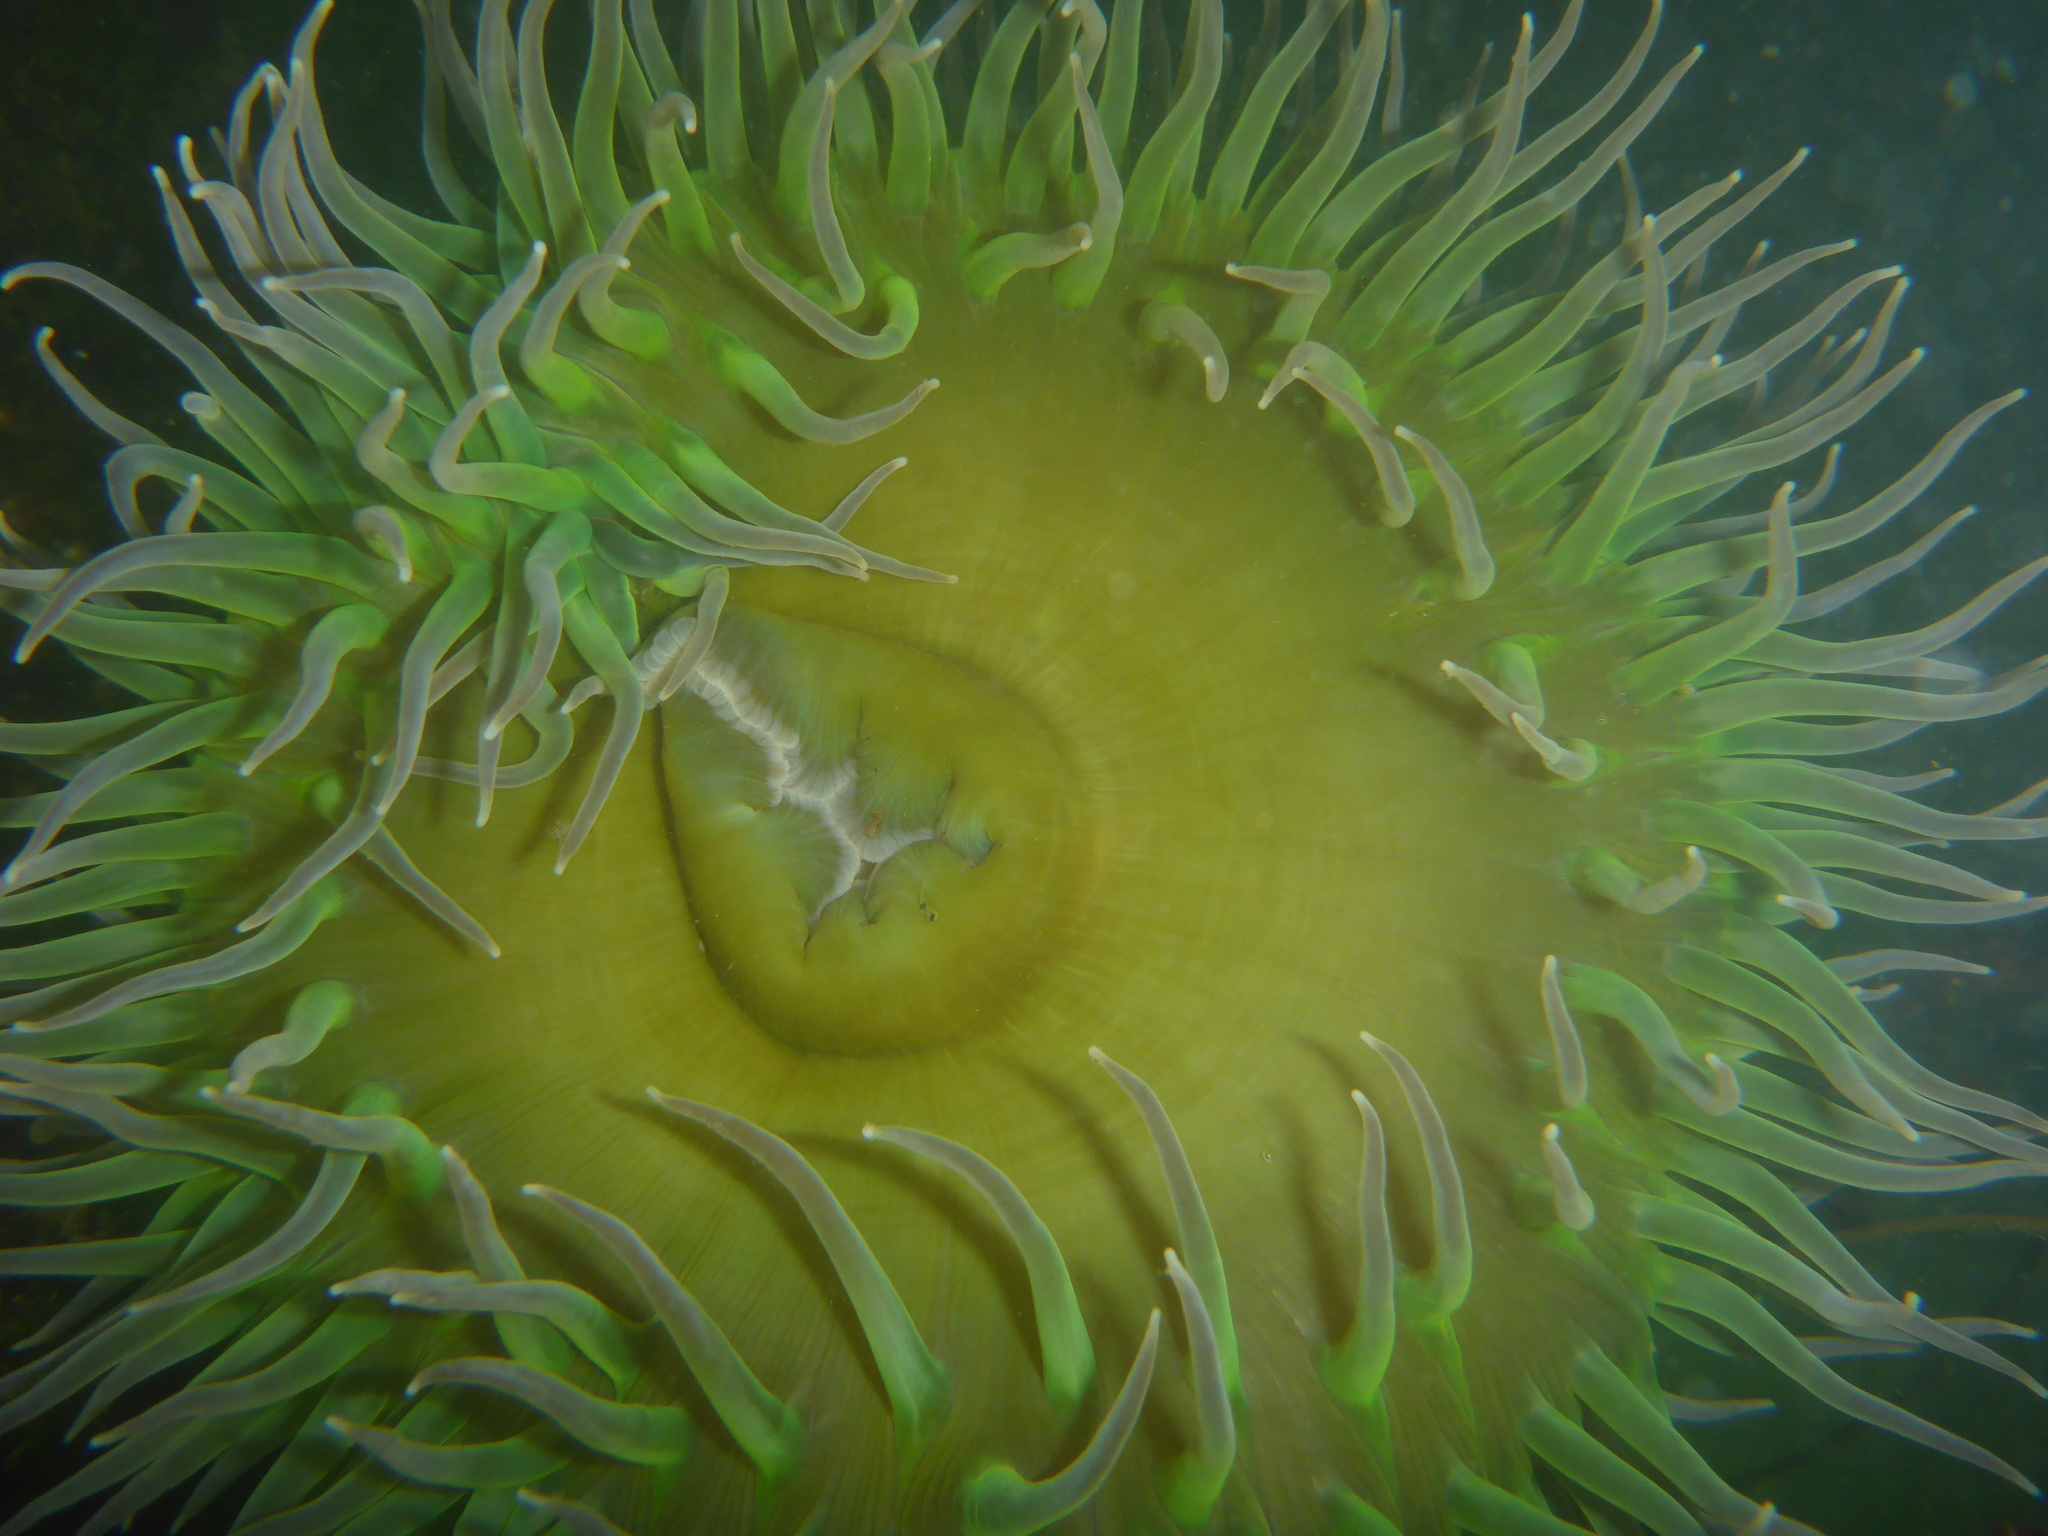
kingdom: Animalia
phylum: Cnidaria
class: Anthozoa
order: Actiniaria
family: Actiniidae
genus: Anthopleura
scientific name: Anthopleura xanthogrammica
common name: Giant green anemone
